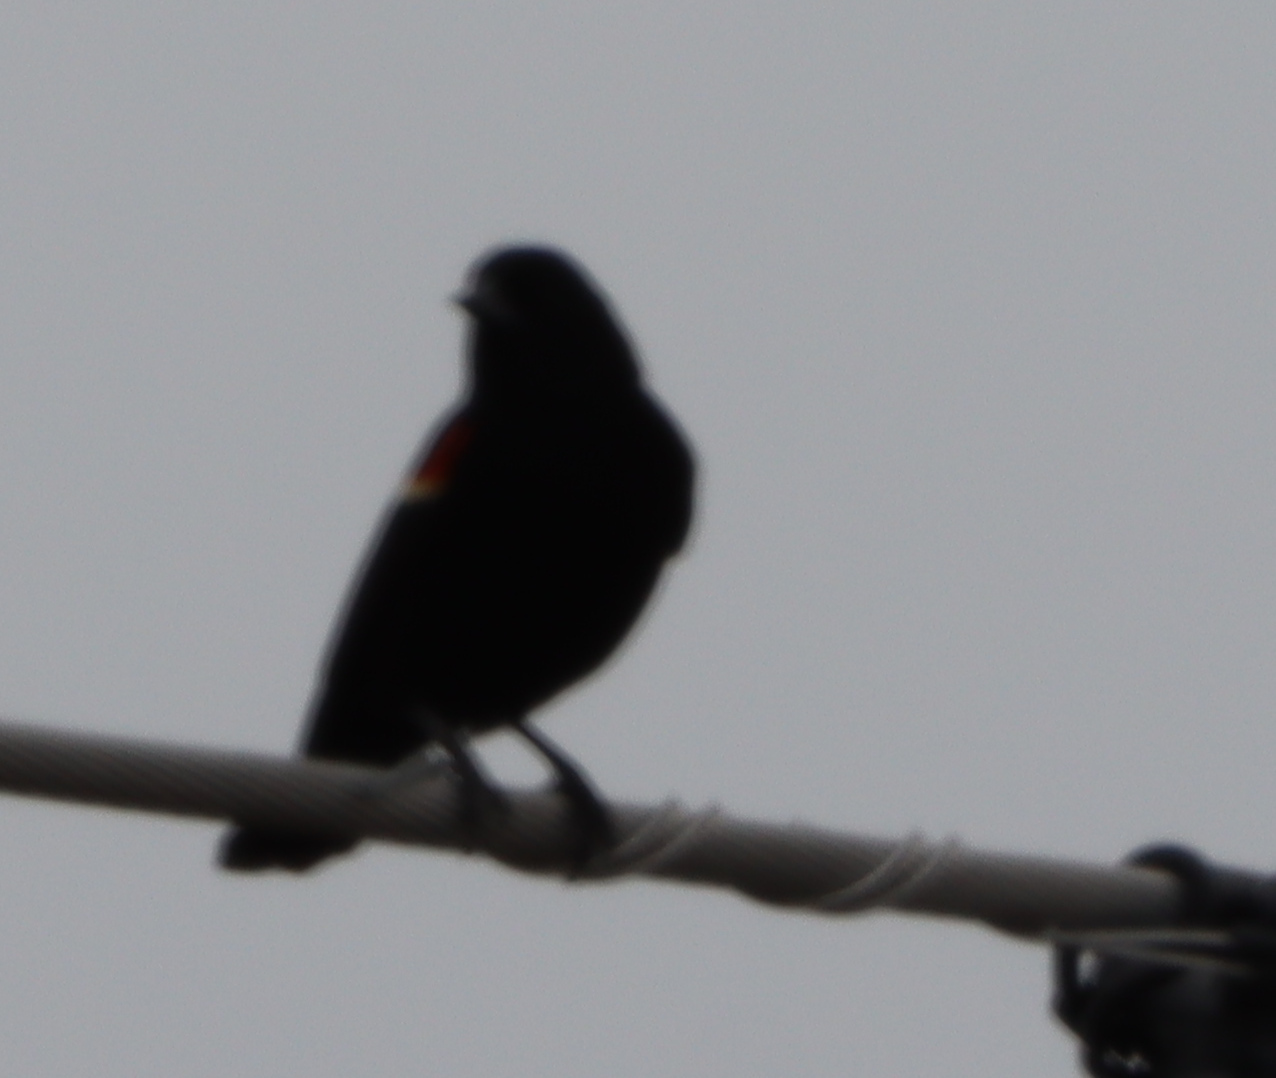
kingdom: Animalia
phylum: Chordata
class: Aves
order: Passeriformes
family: Icteridae
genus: Agelaius
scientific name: Agelaius phoeniceus
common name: Red-winged blackbird
